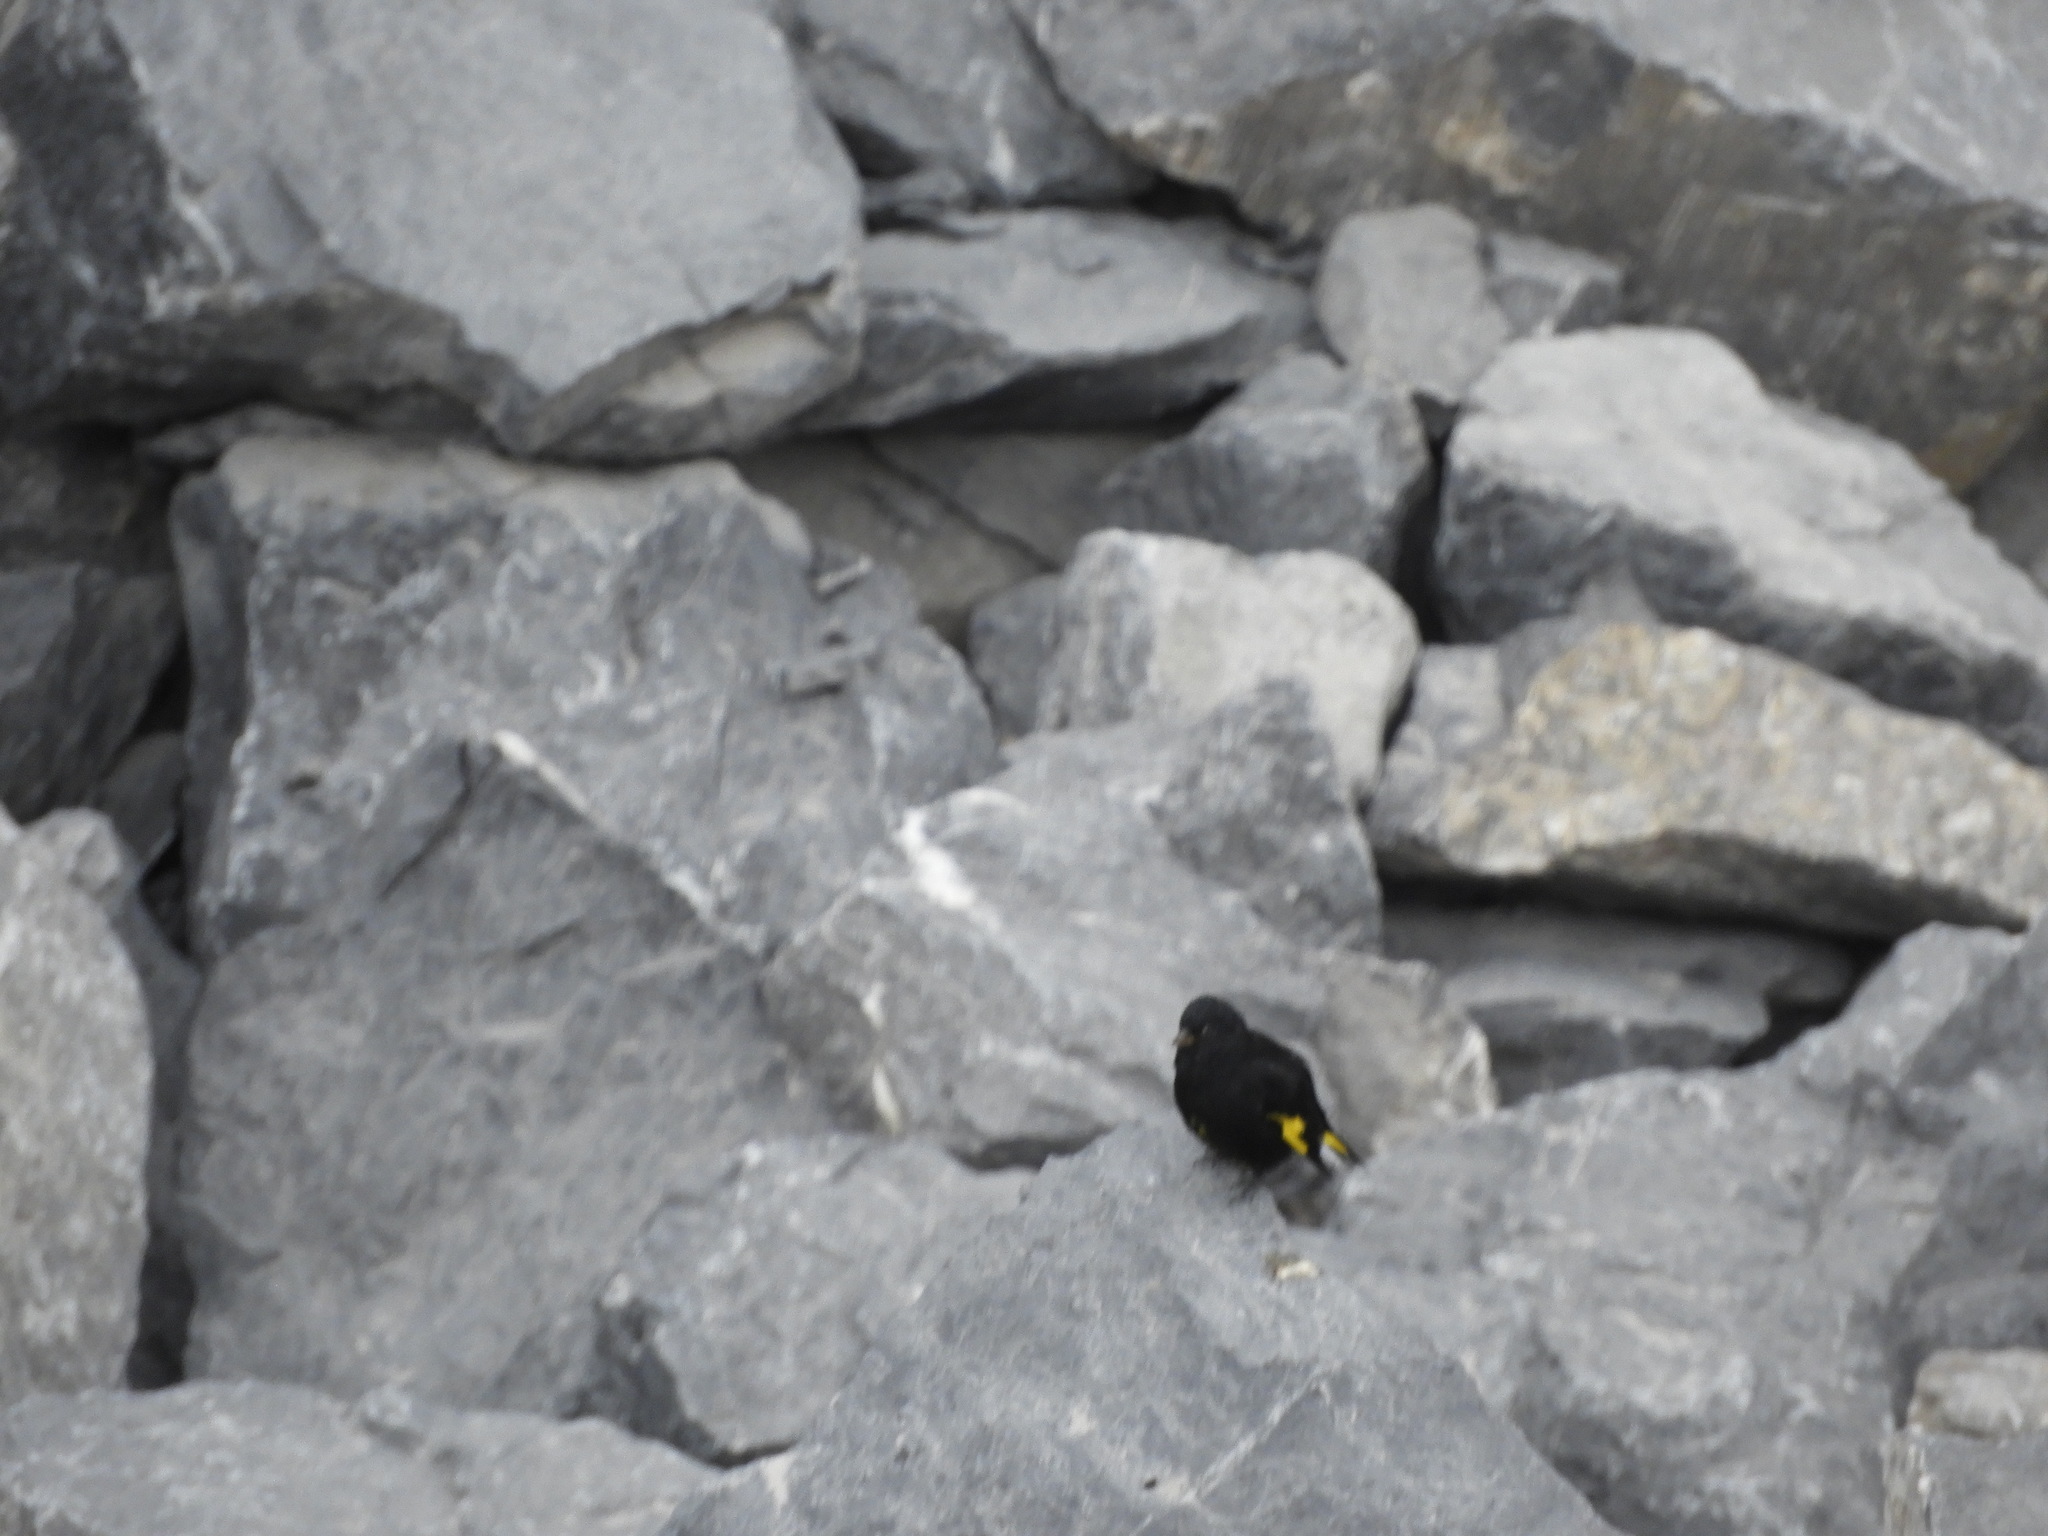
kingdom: Animalia
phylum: Chordata
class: Aves
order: Passeriformes
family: Fringillidae
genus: Spinus
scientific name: Spinus atratus
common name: Black siskin
